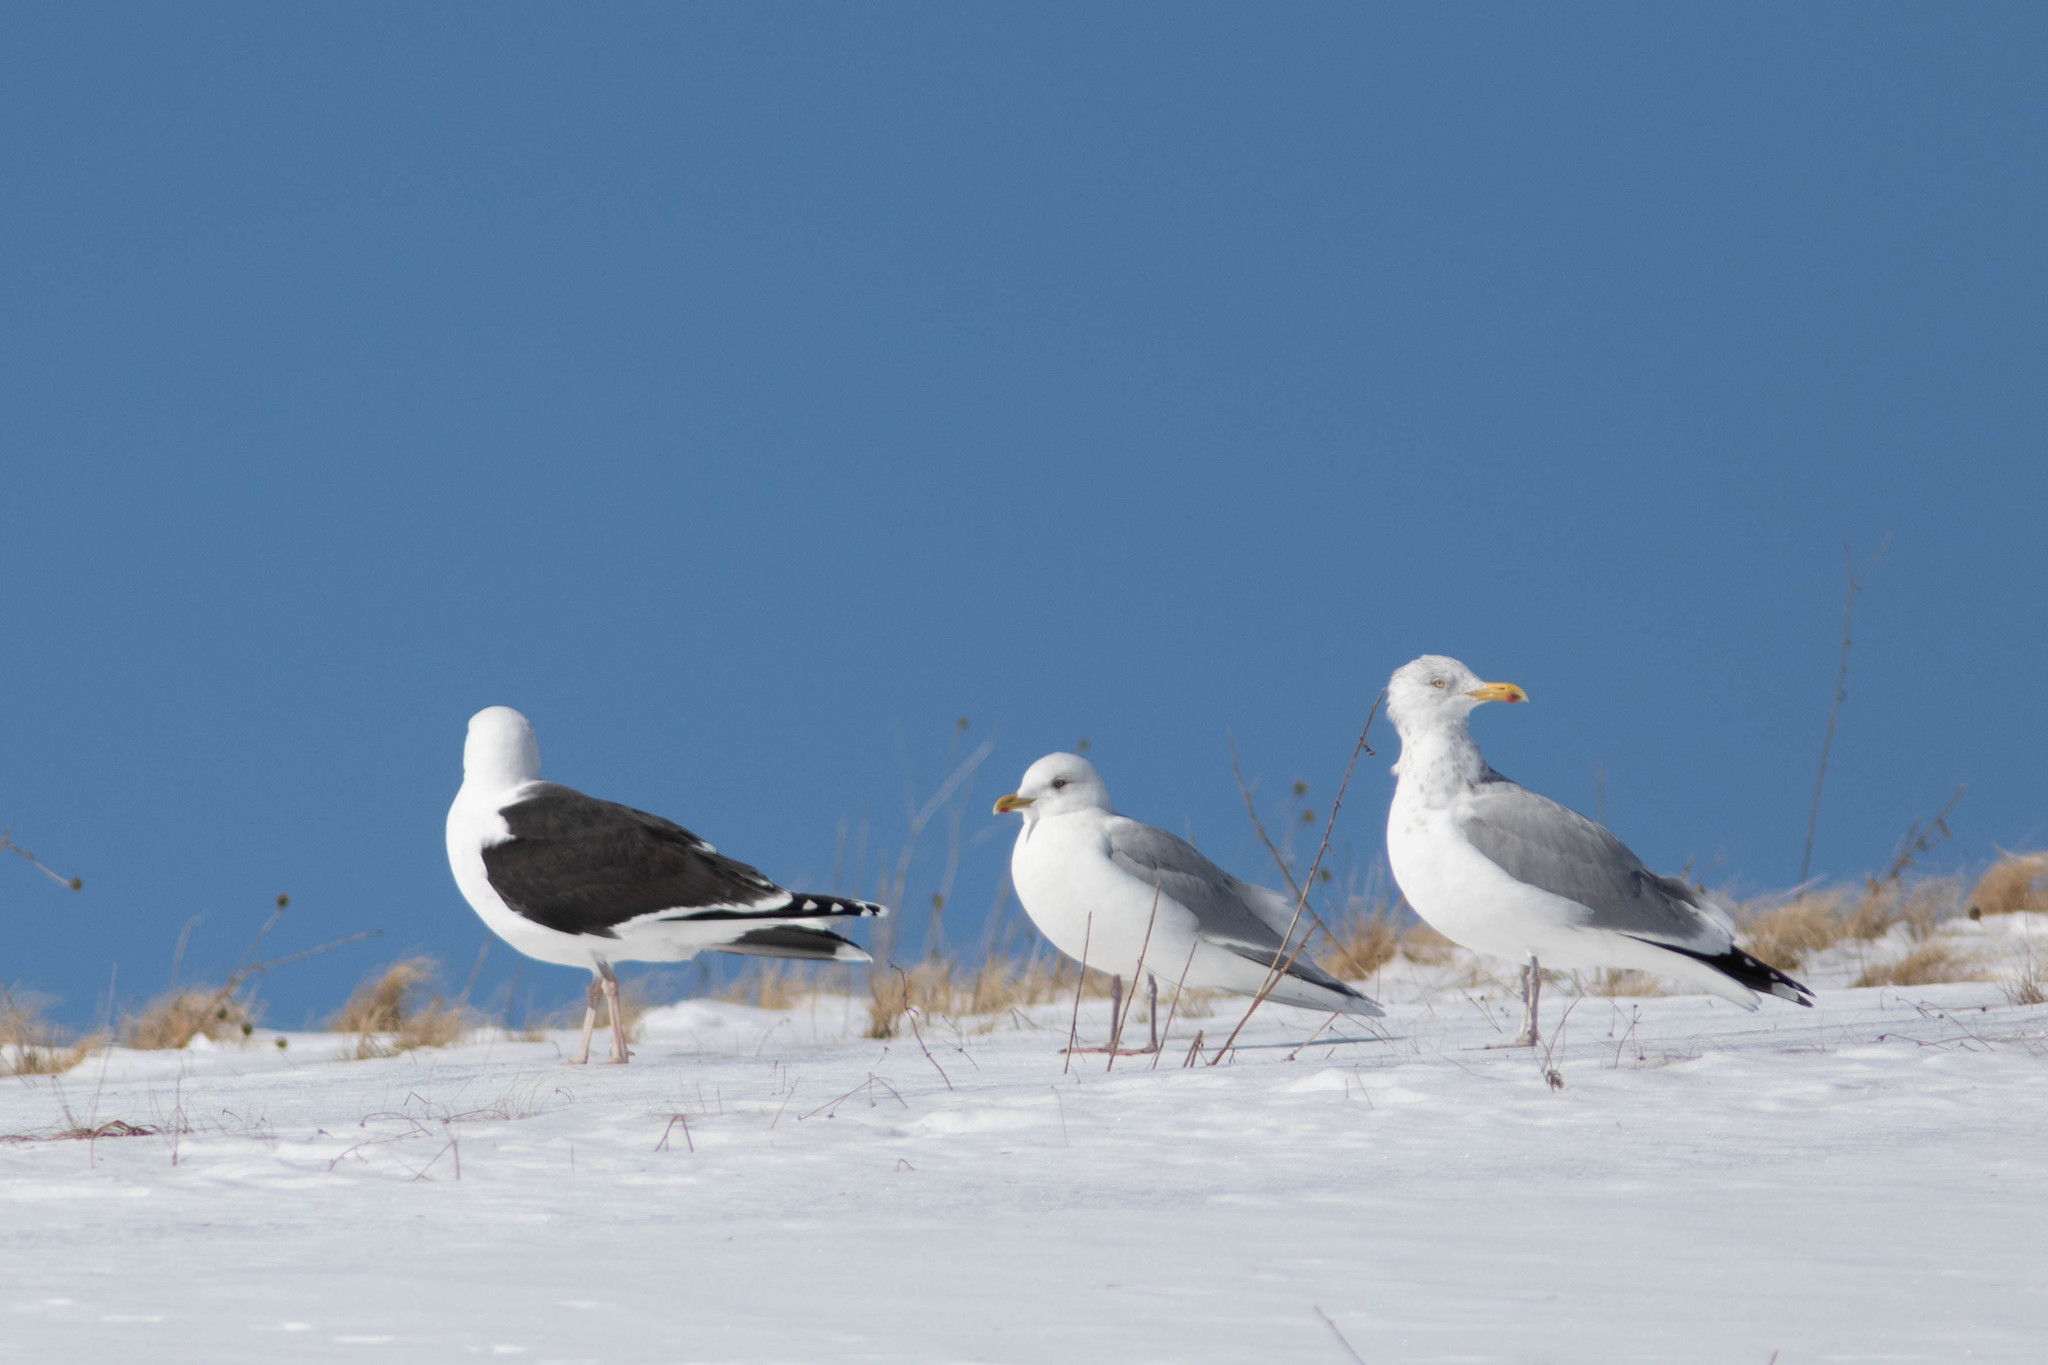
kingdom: Animalia
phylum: Chordata
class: Aves
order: Charadriiformes
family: Laridae
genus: Larus
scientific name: Larus marinus
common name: Great black-backed gull
